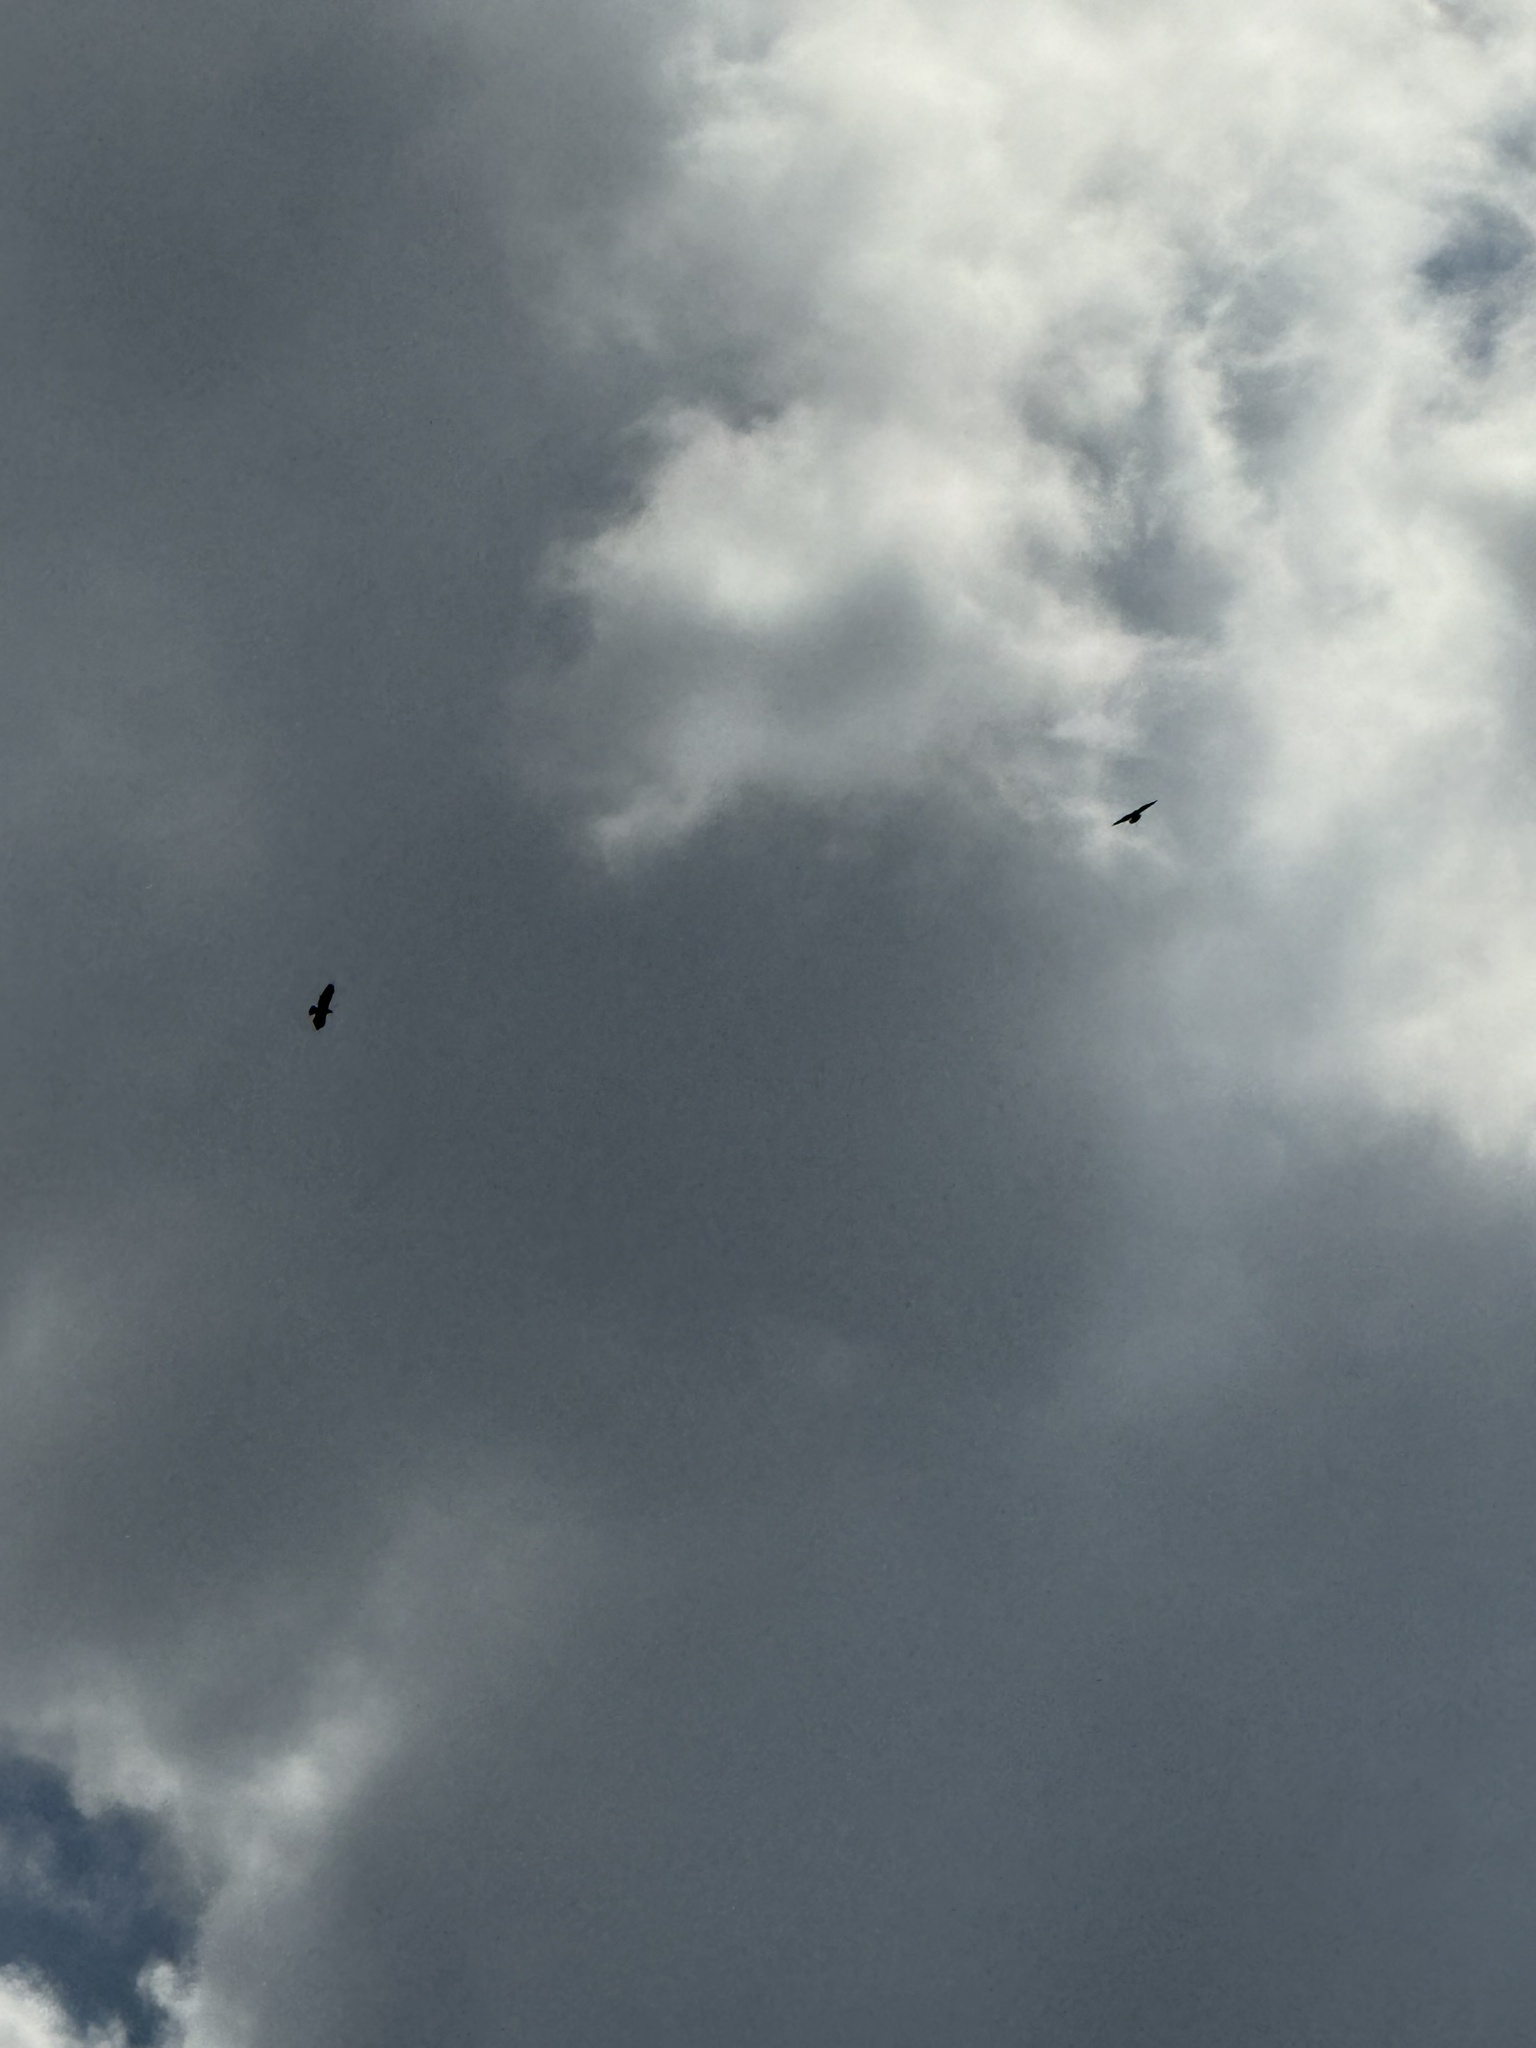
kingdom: Animalia
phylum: Chordata
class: Aves
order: Accipitriformes
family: Accipitridae
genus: Buteo
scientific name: Buteo jamaicensis
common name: Red-tailed hawk
